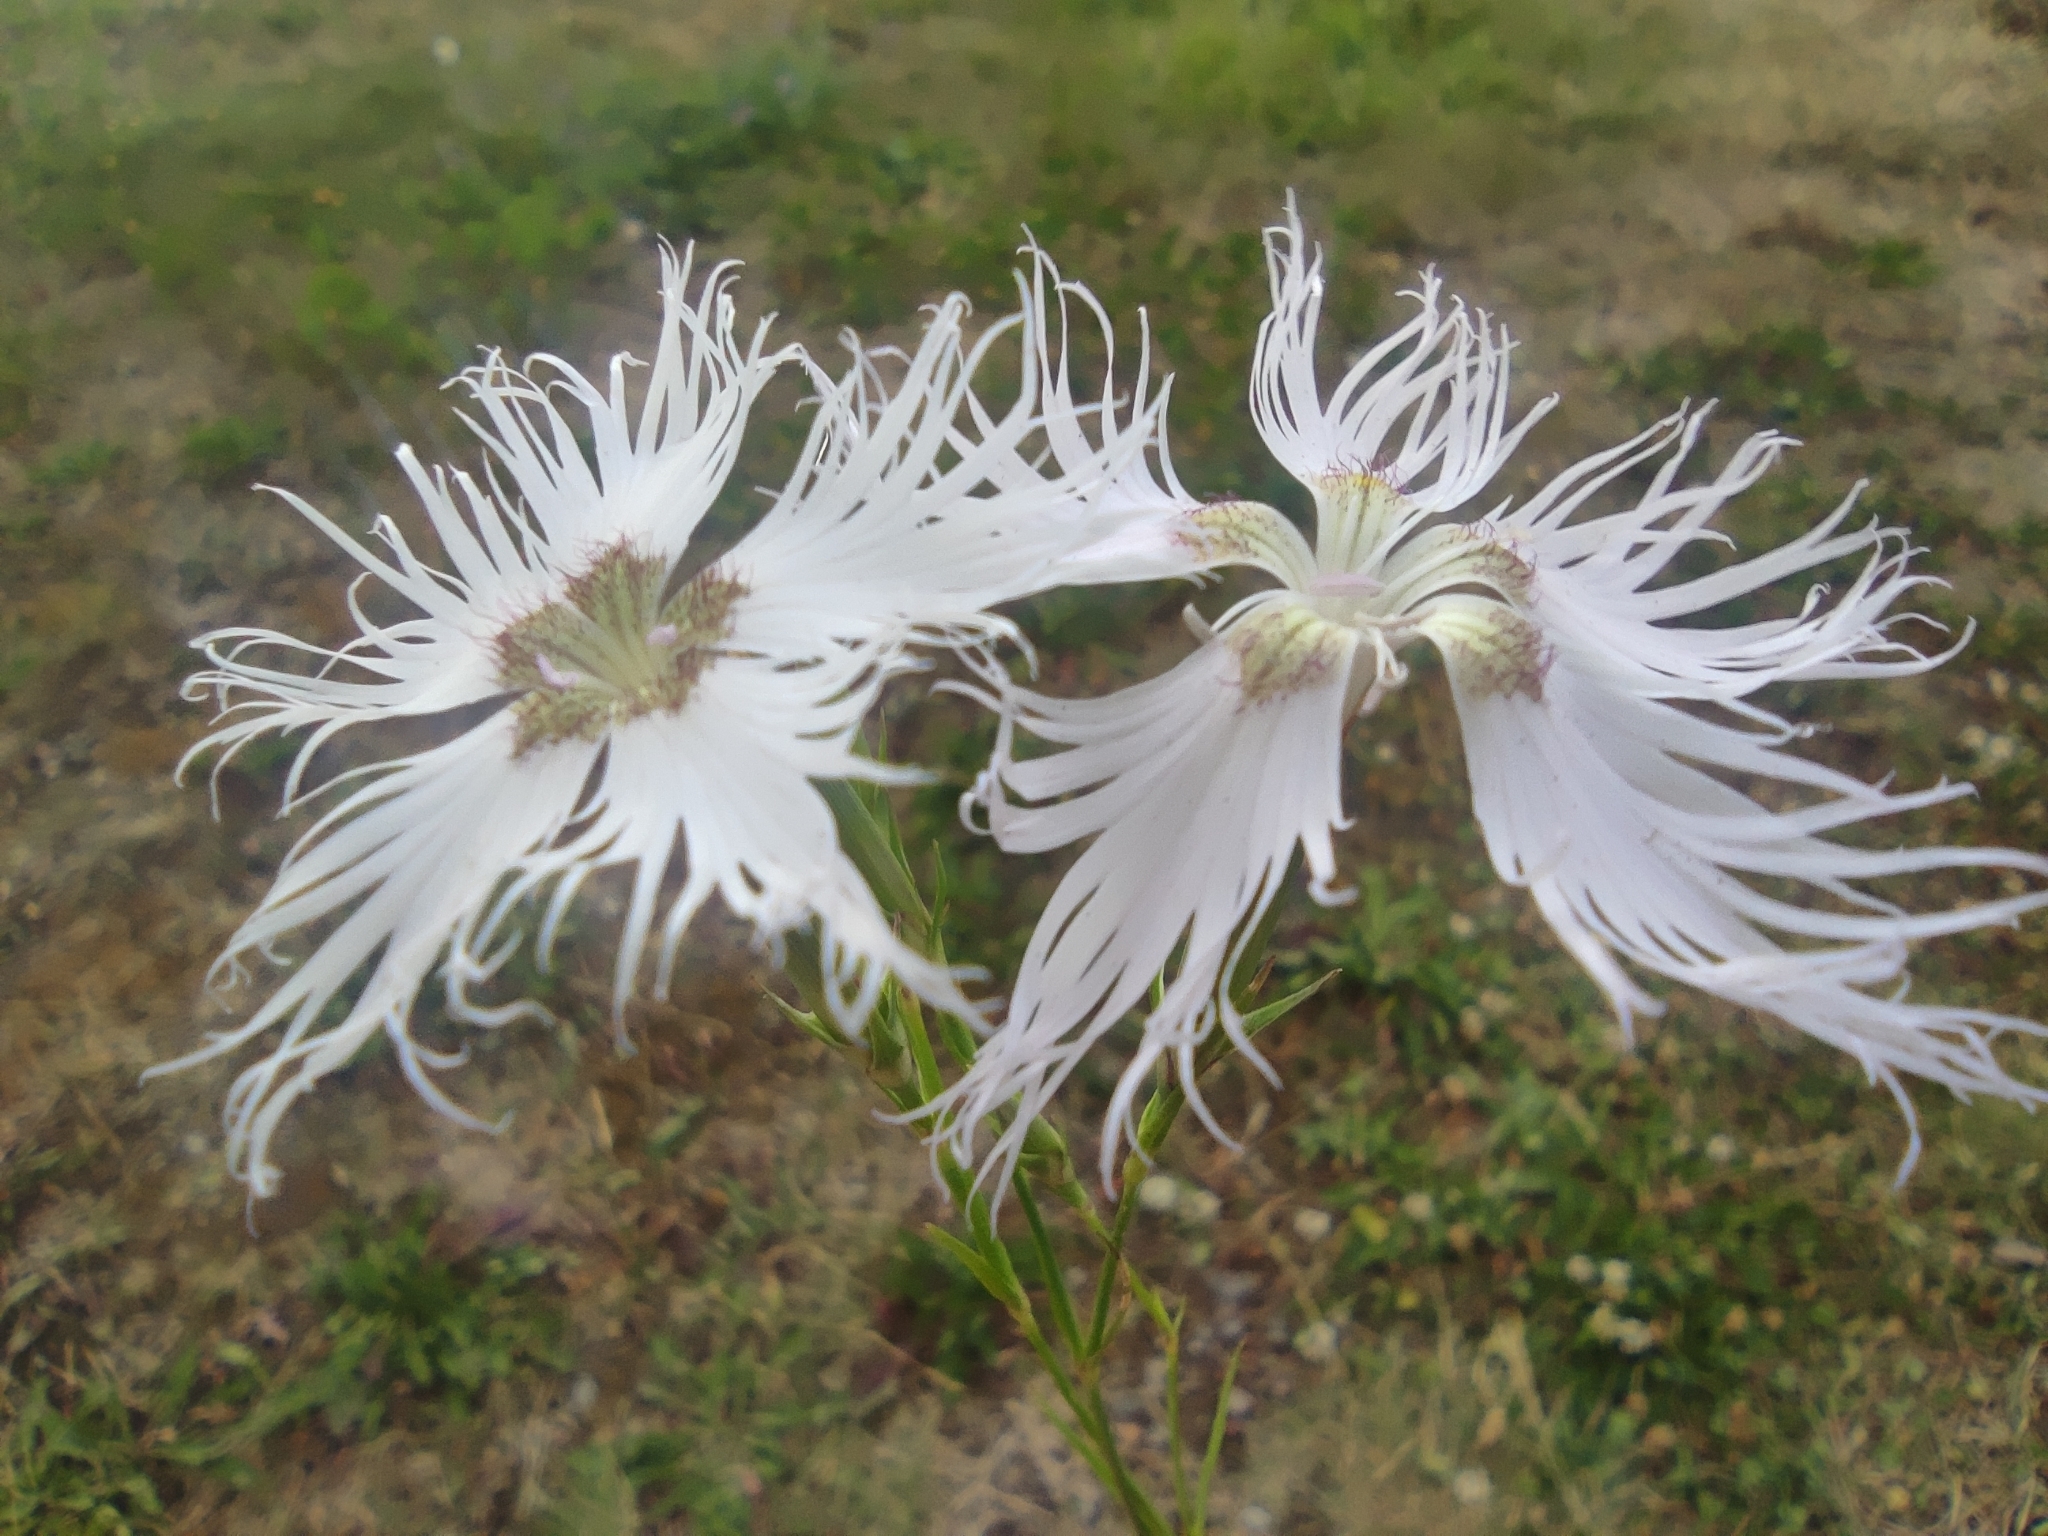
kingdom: Plantae
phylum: Tracheophyta
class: Magnoliopsida
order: Caryophyllales
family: Caryophyllaceae
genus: Dianthus
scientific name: Dianthus hyssopifolius
